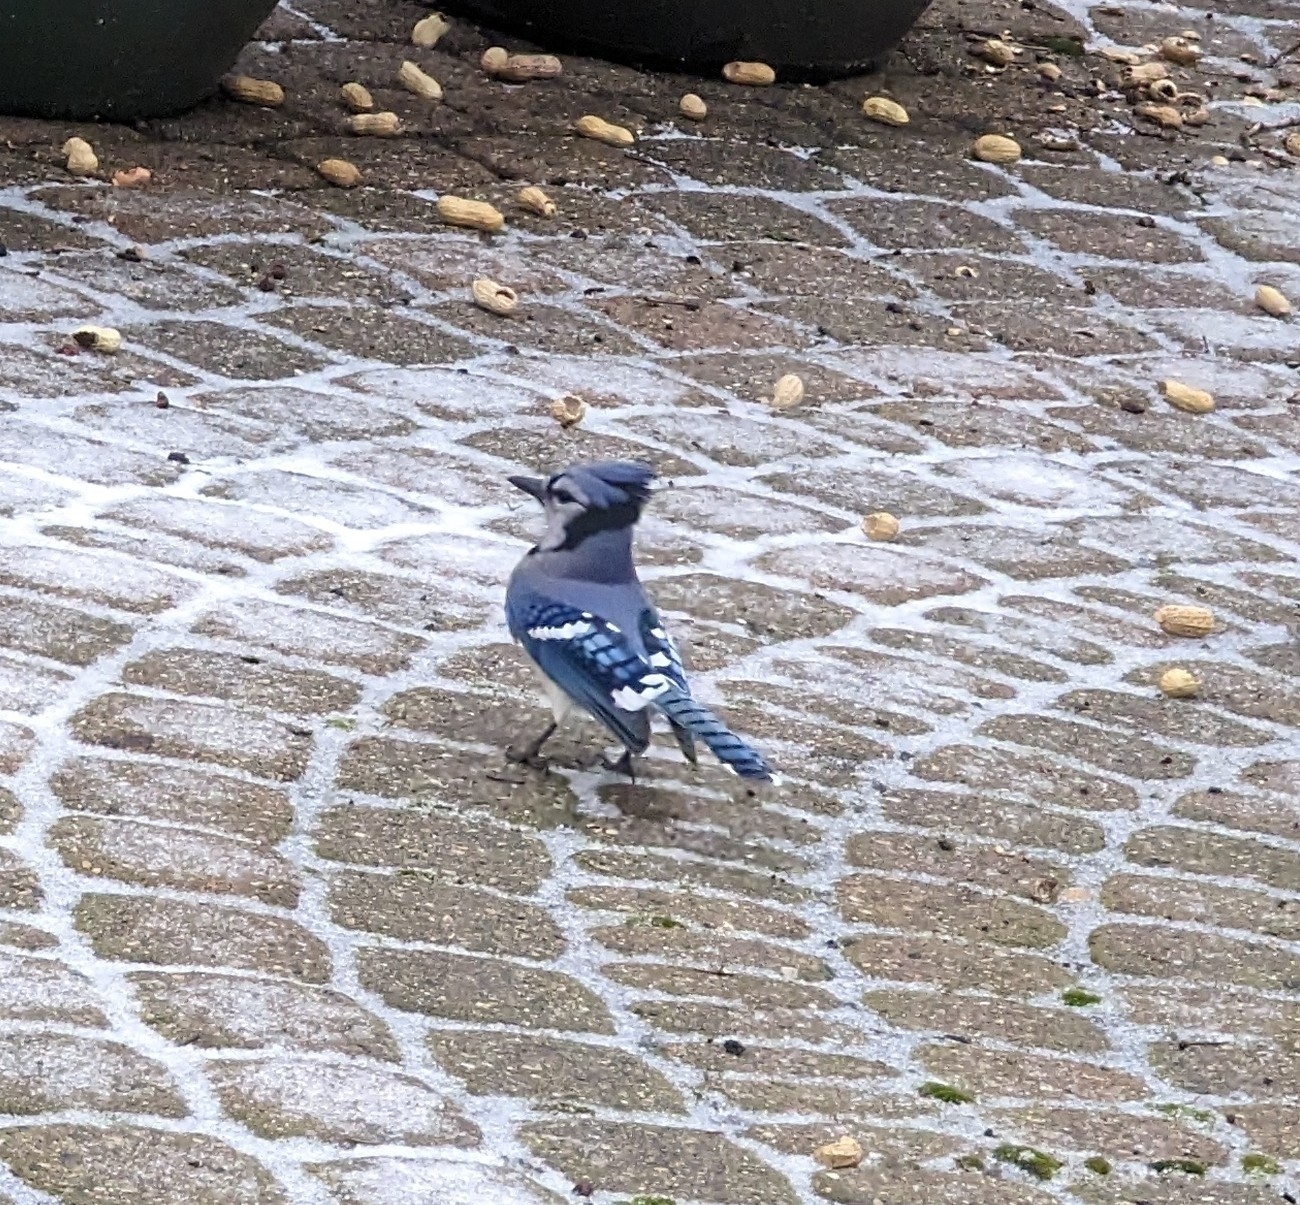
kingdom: Animalia
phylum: Chordata
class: Aves
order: Passeriformes
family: Corvidae
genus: Cyanocitta
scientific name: Cyanocitta cristata
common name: Blue jay
